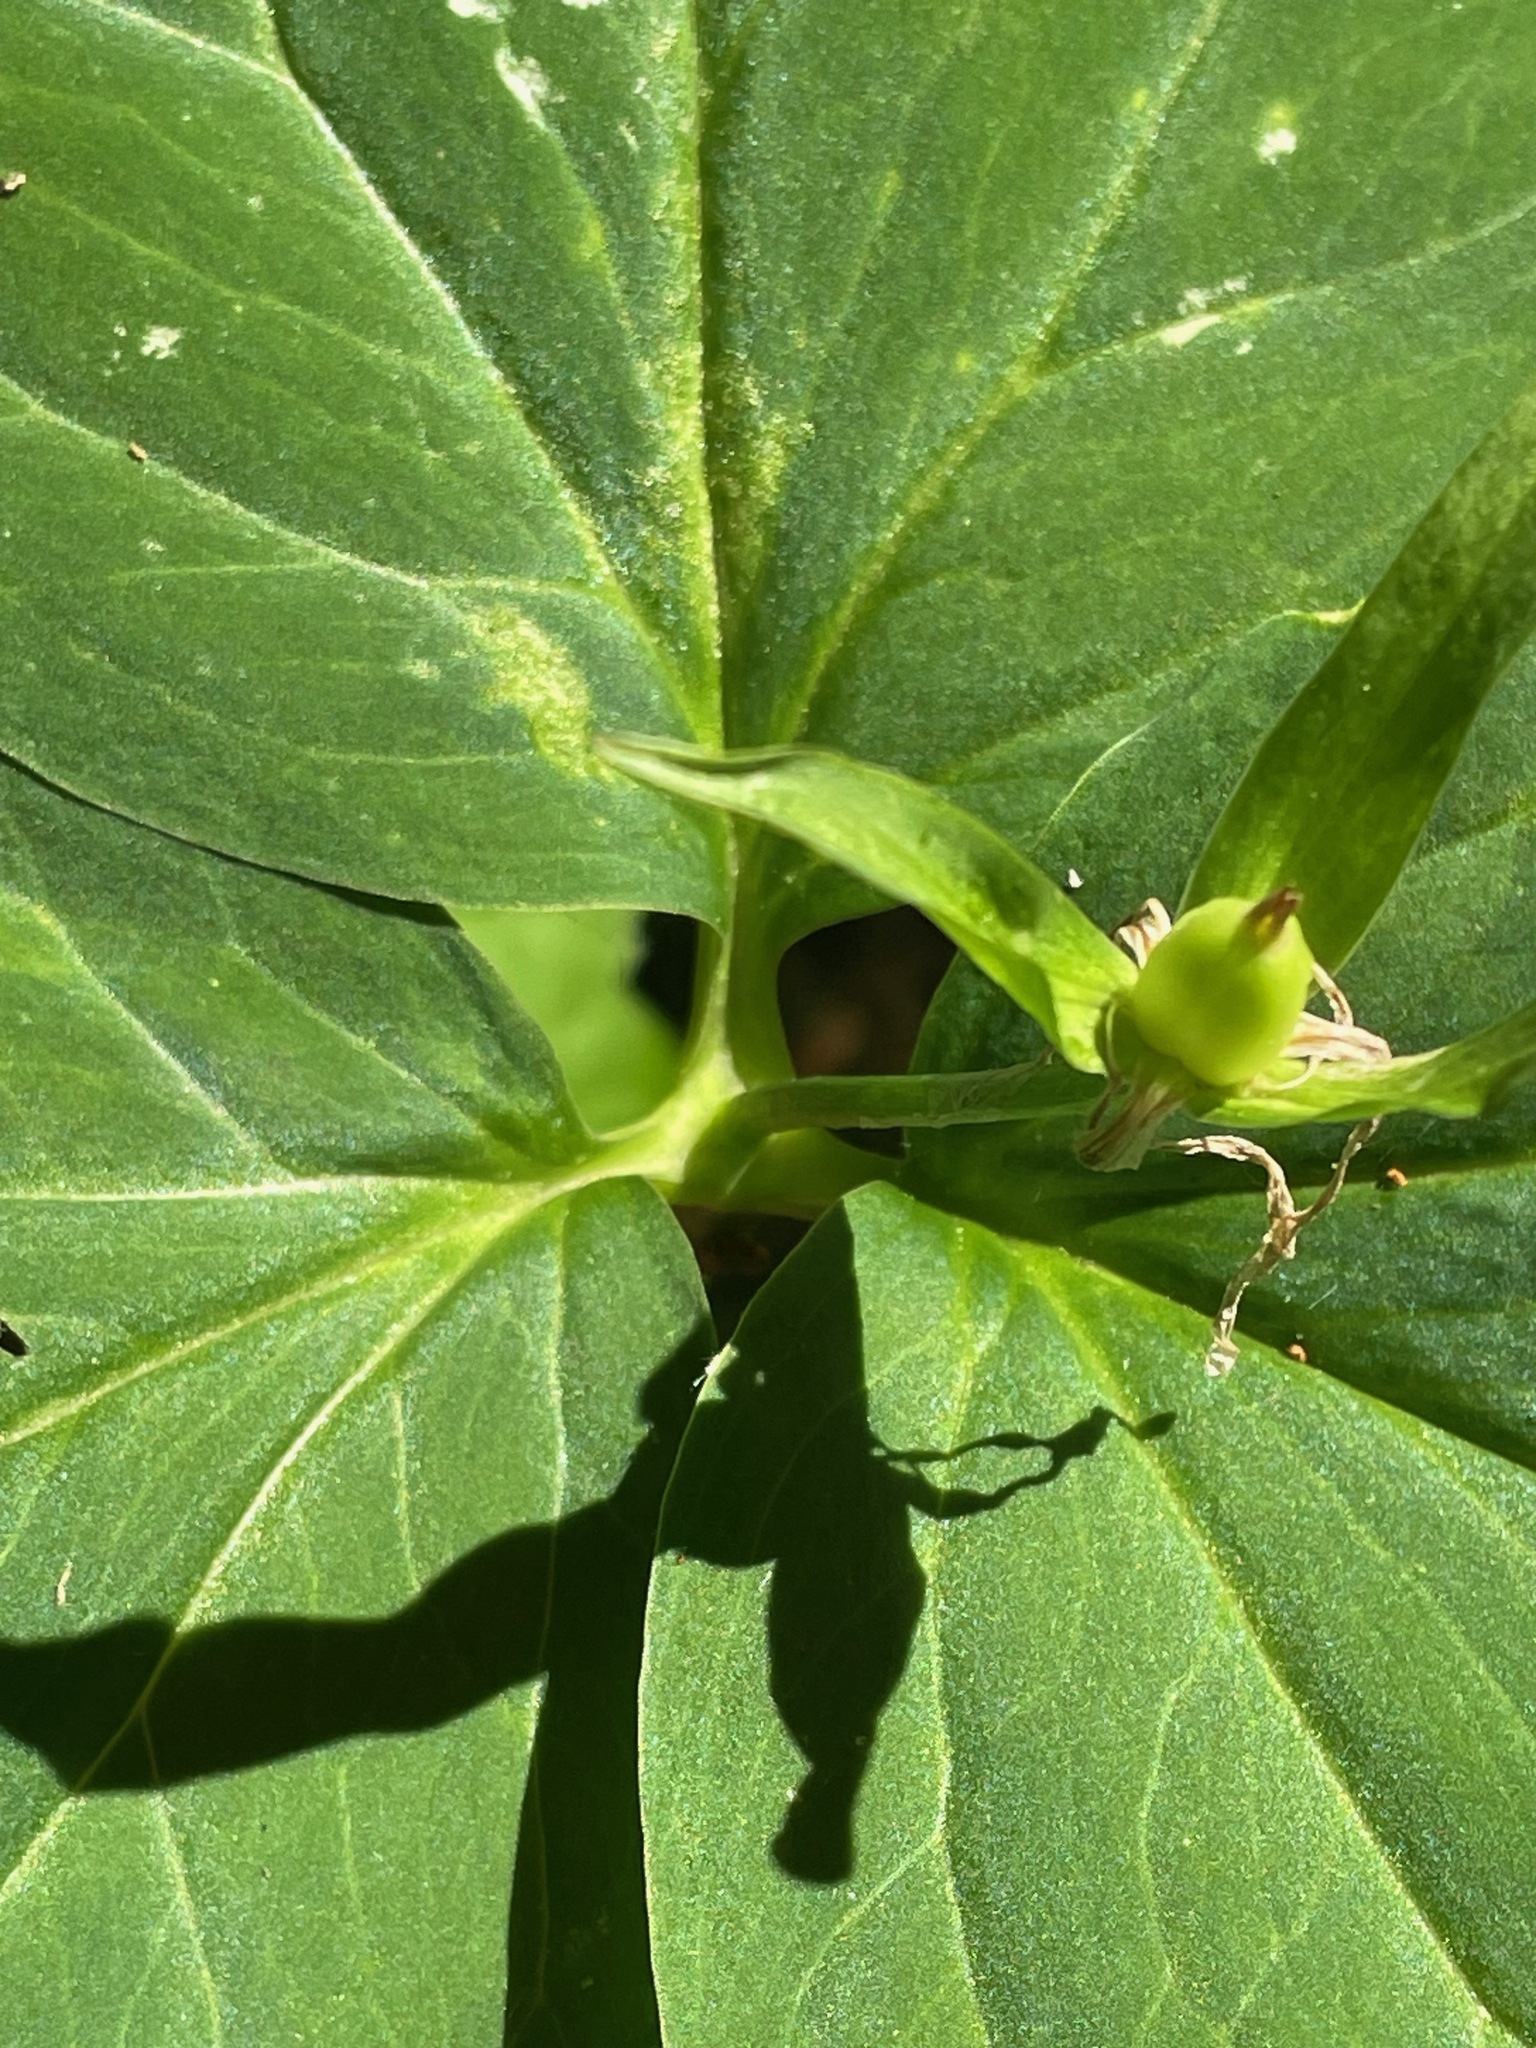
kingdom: Plantae
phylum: Tracheophyta
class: Liliopsida
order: Liliales
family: Melanthiaceae
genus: Trillium
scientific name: Trillium undulatum
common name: Paint trillium
